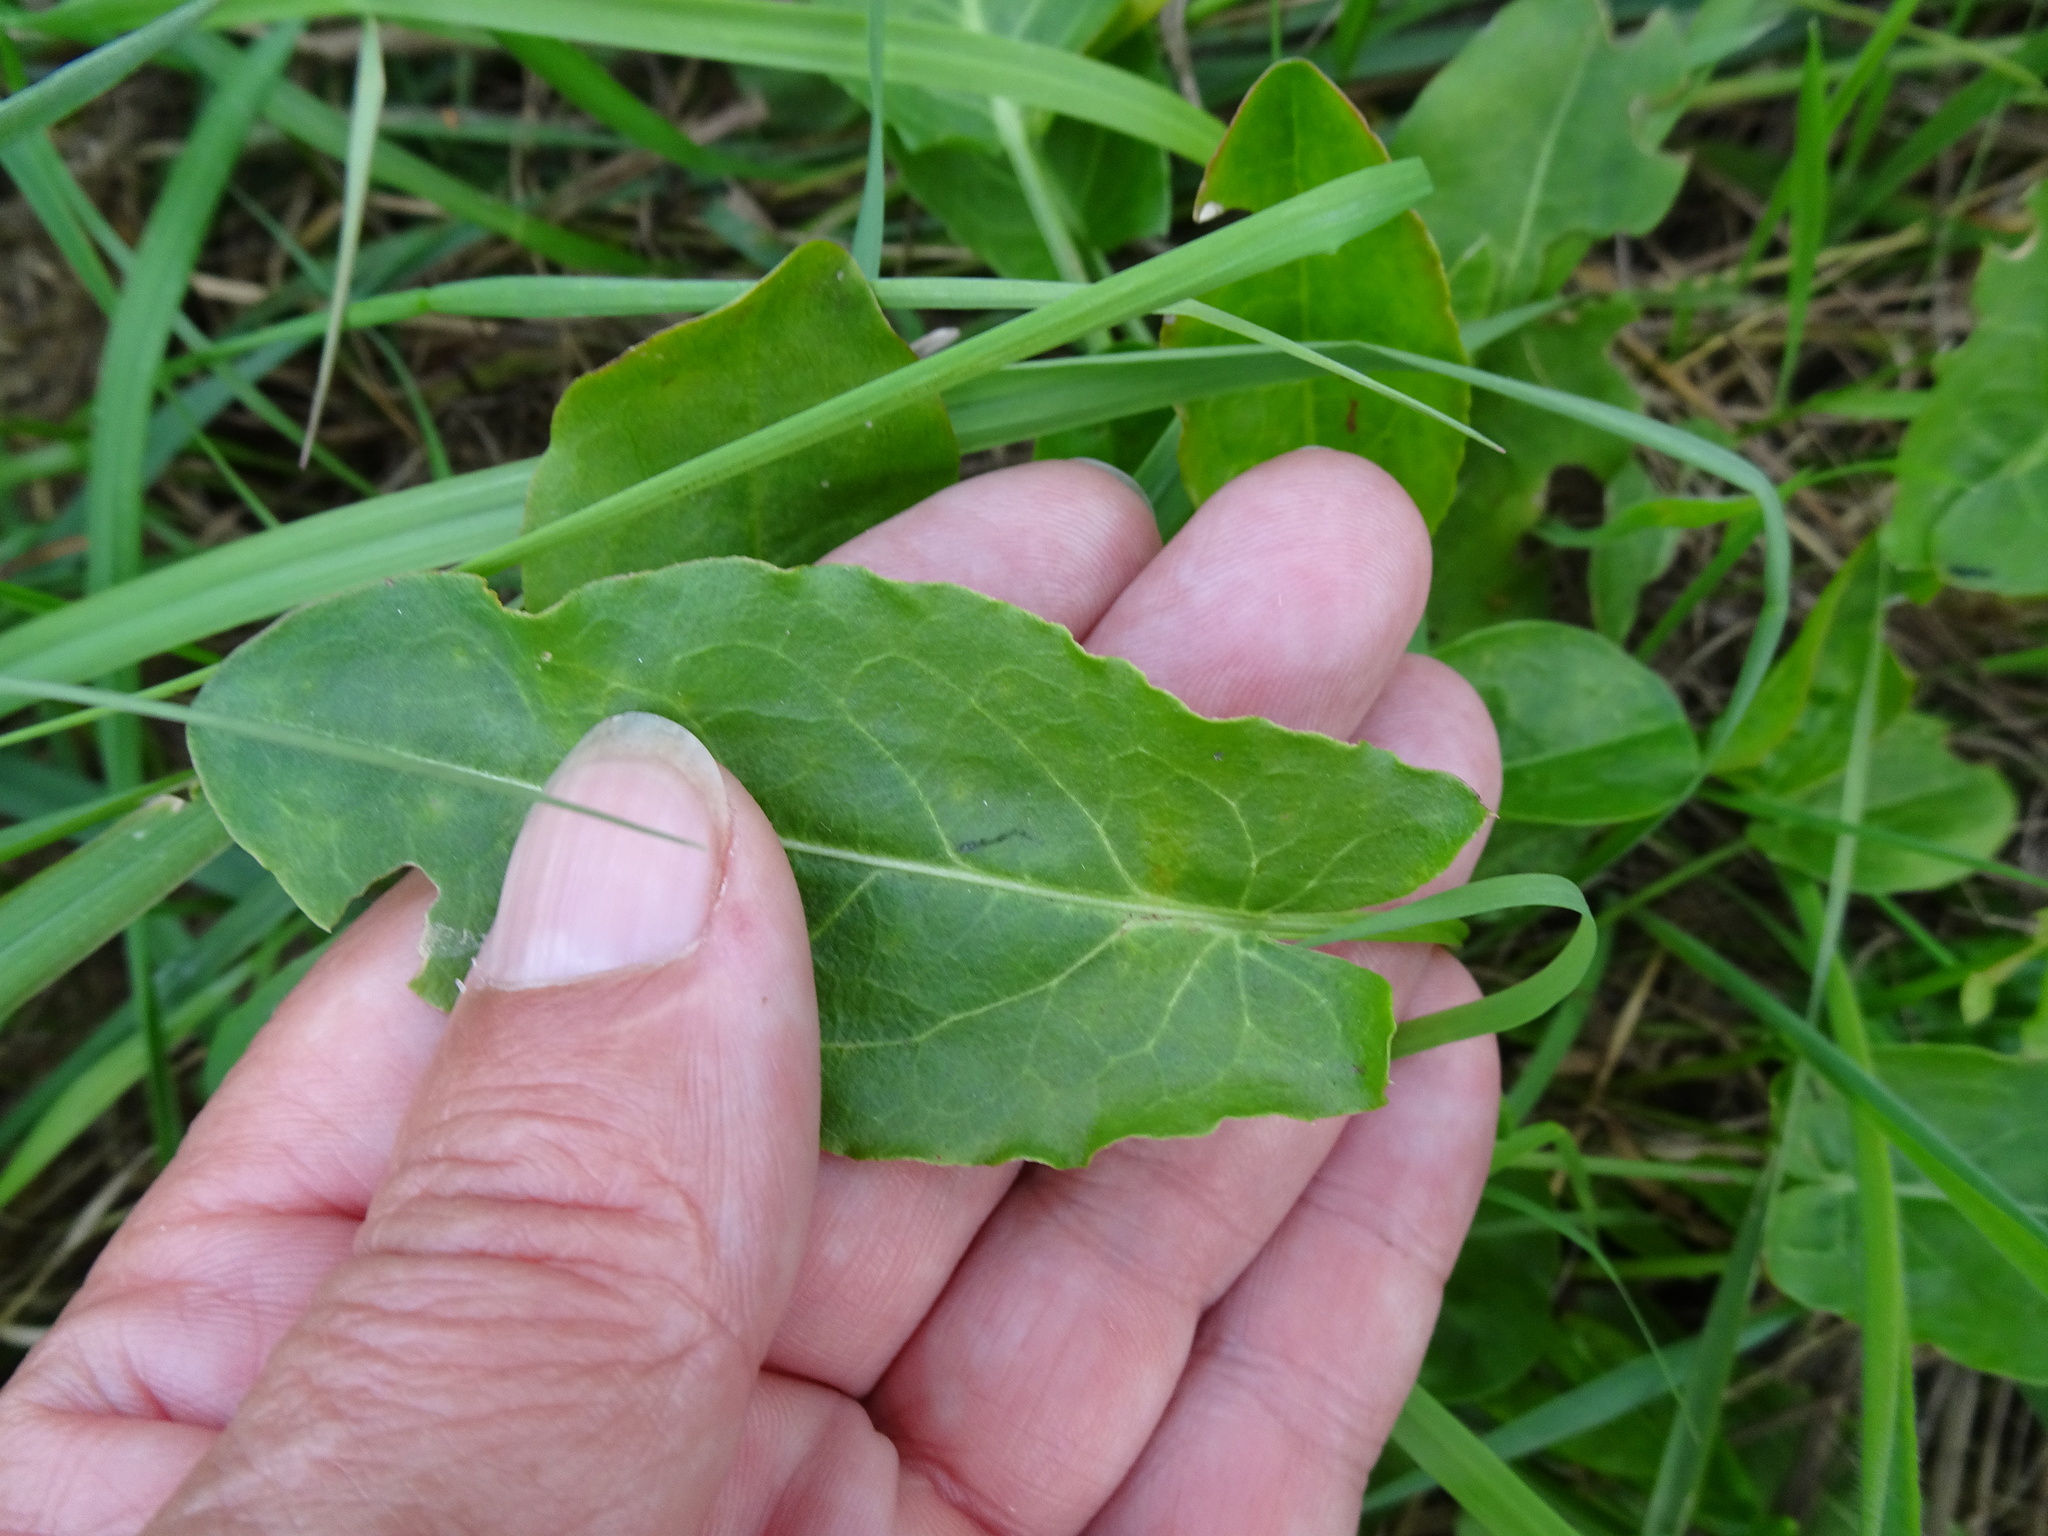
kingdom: Plantae
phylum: Tracheophyta
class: Magnoliopsida
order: Caryophyllales
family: Polygonaceae
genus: Rumex
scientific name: Rumex acetosa
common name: Garden sorrel
